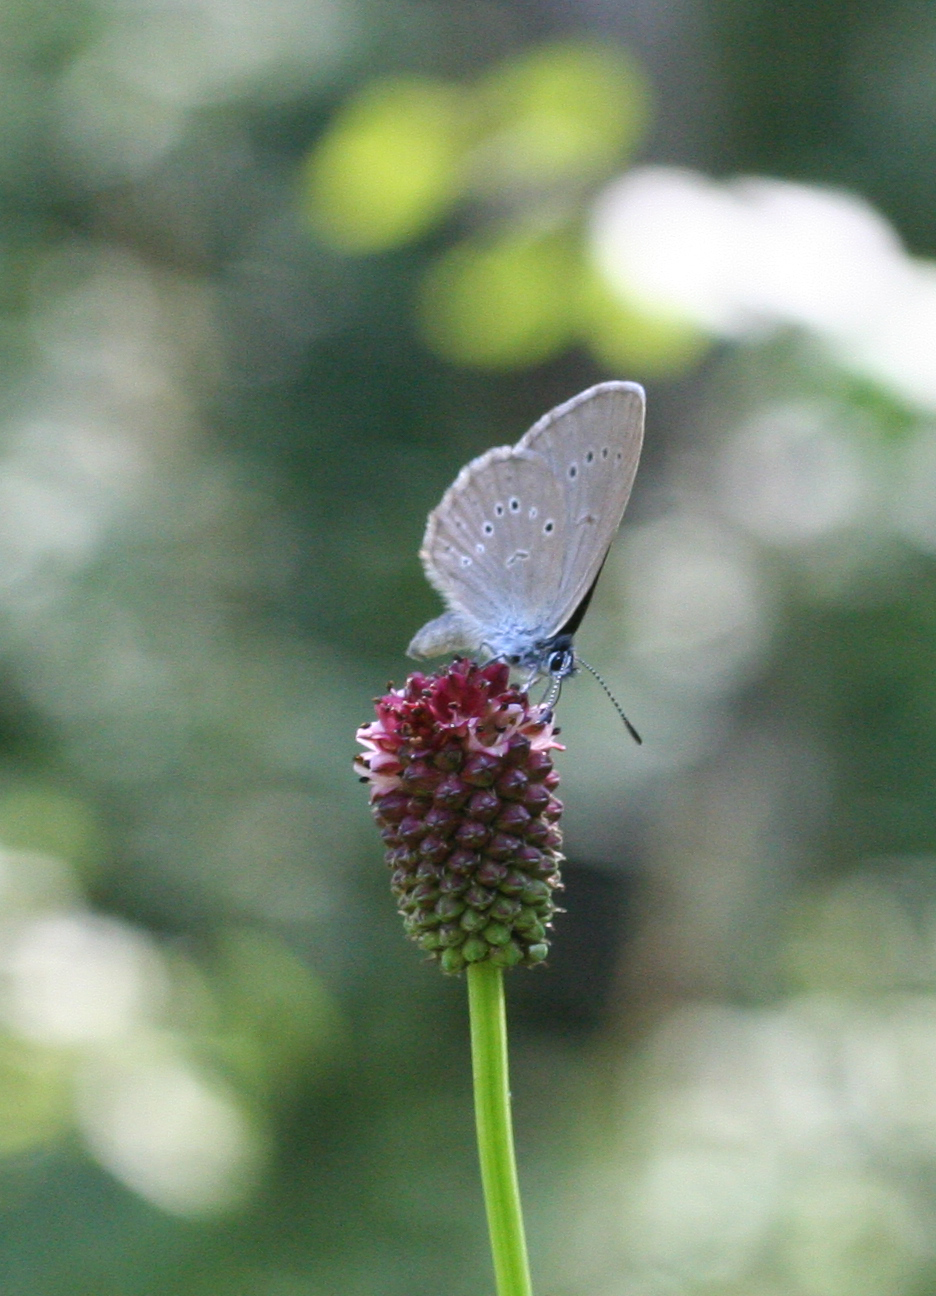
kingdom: Animalia
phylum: Arthropoda
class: Insecta
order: Lepidoptera
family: Lycaenidae
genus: Phengaris
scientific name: Phengaris teleius
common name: Scarce large blue
